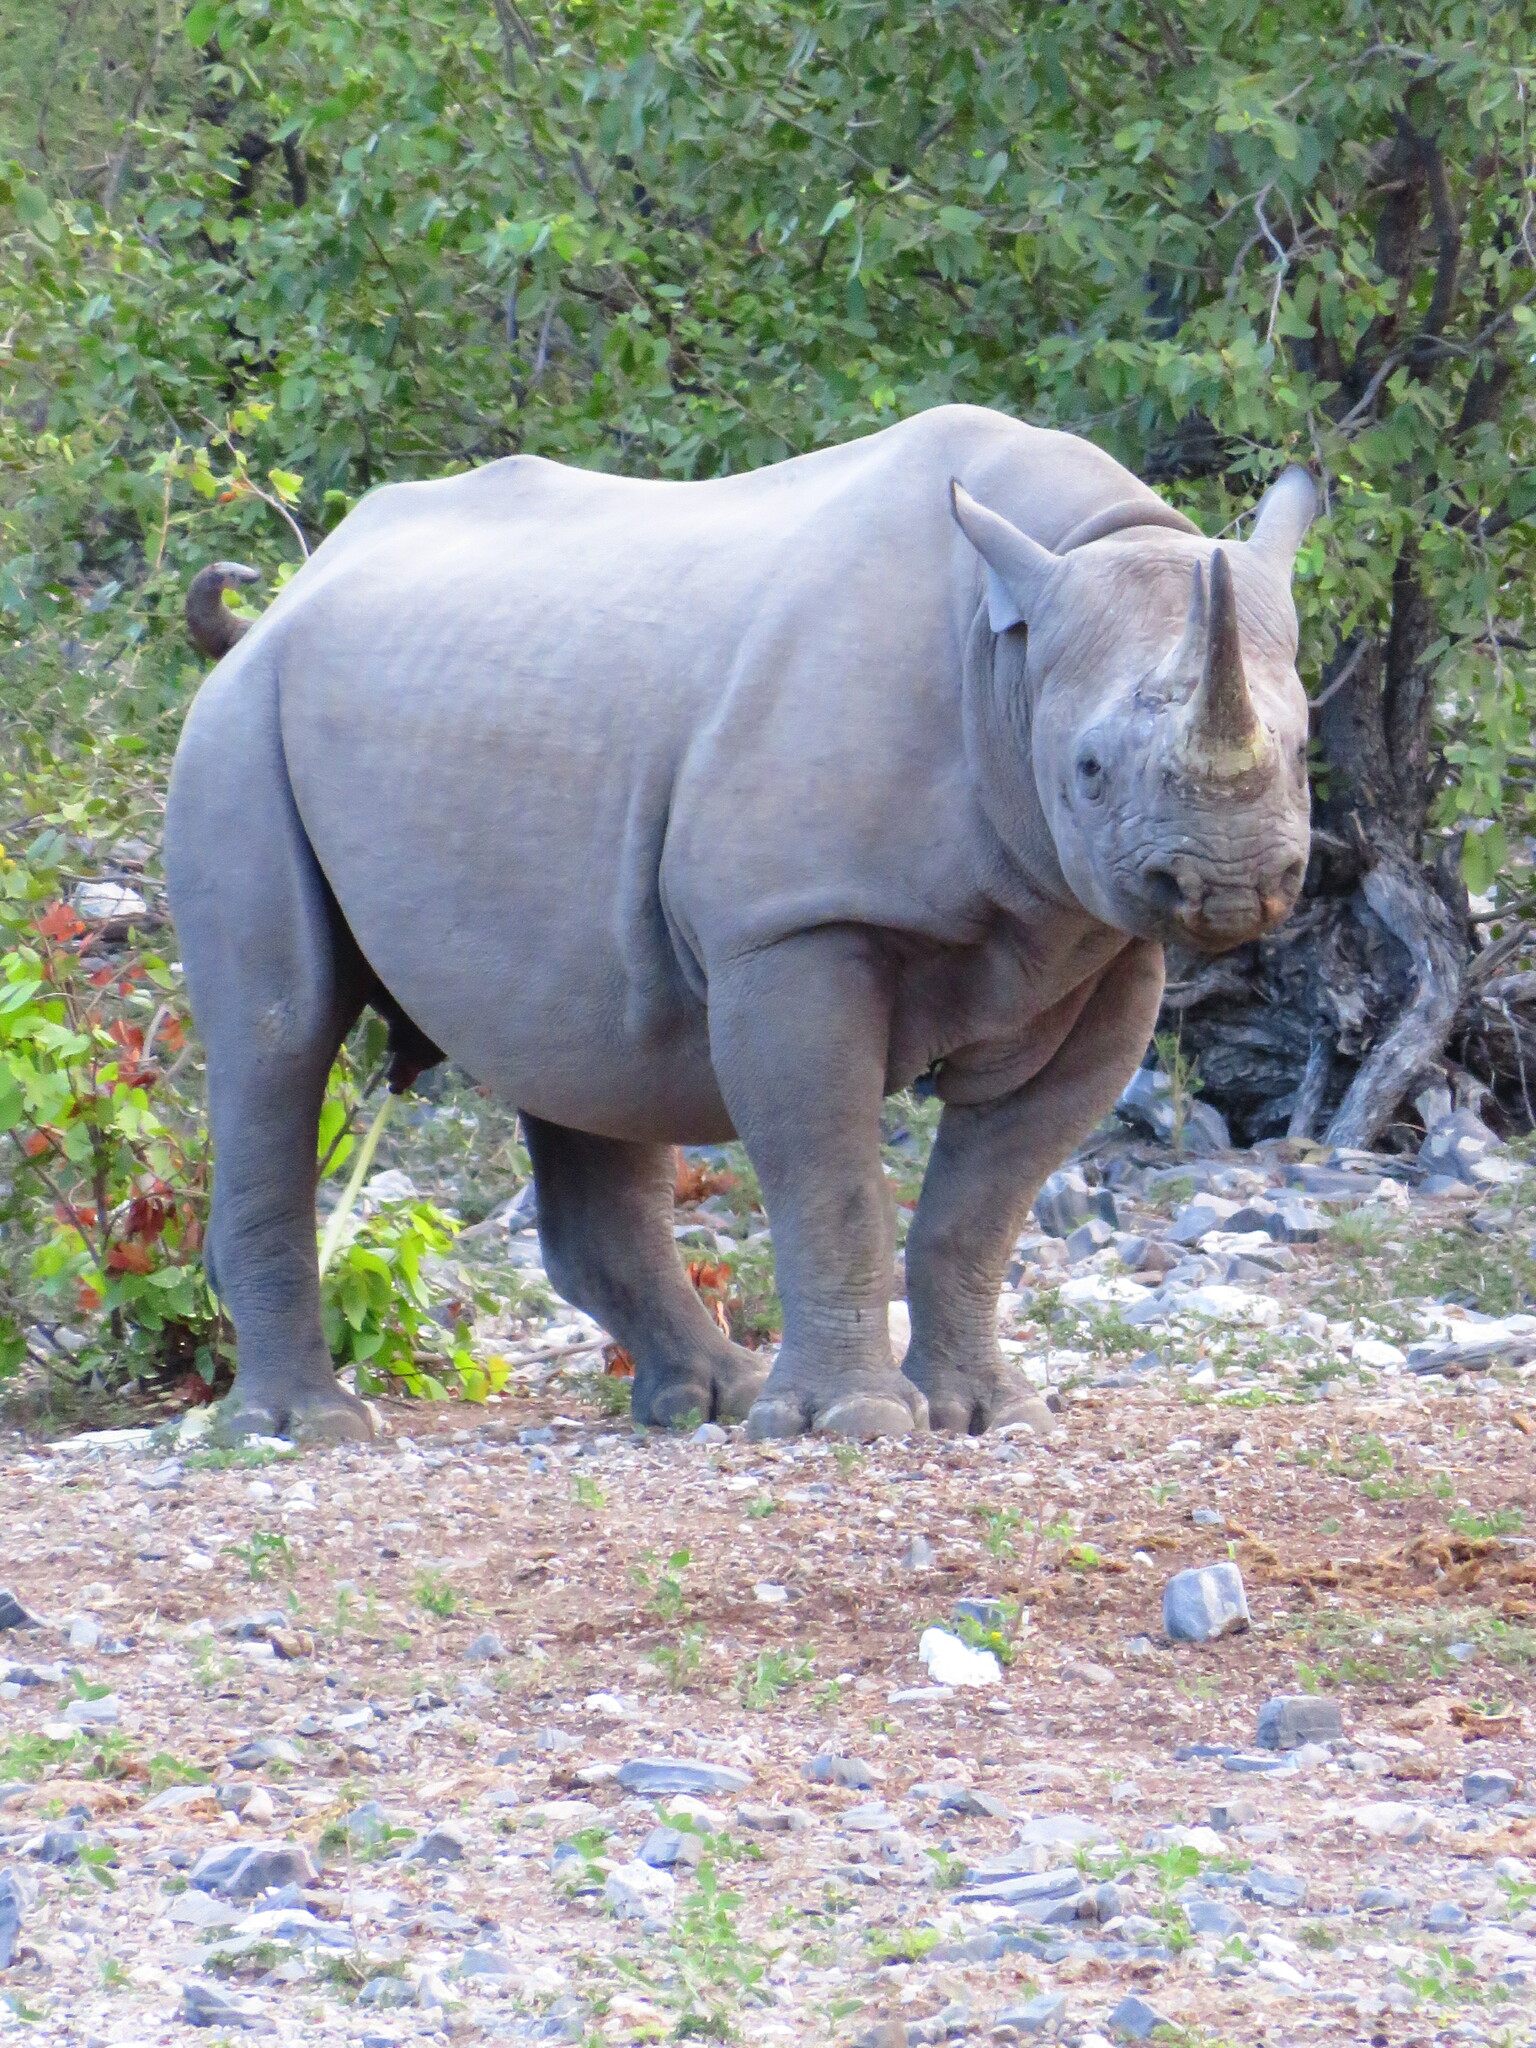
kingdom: Animalia
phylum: Chordata
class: Mammalia
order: Perissodactyla
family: Rhinocerotidae
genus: Diceros
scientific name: Diceros bicornis
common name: Black rhinoceros
